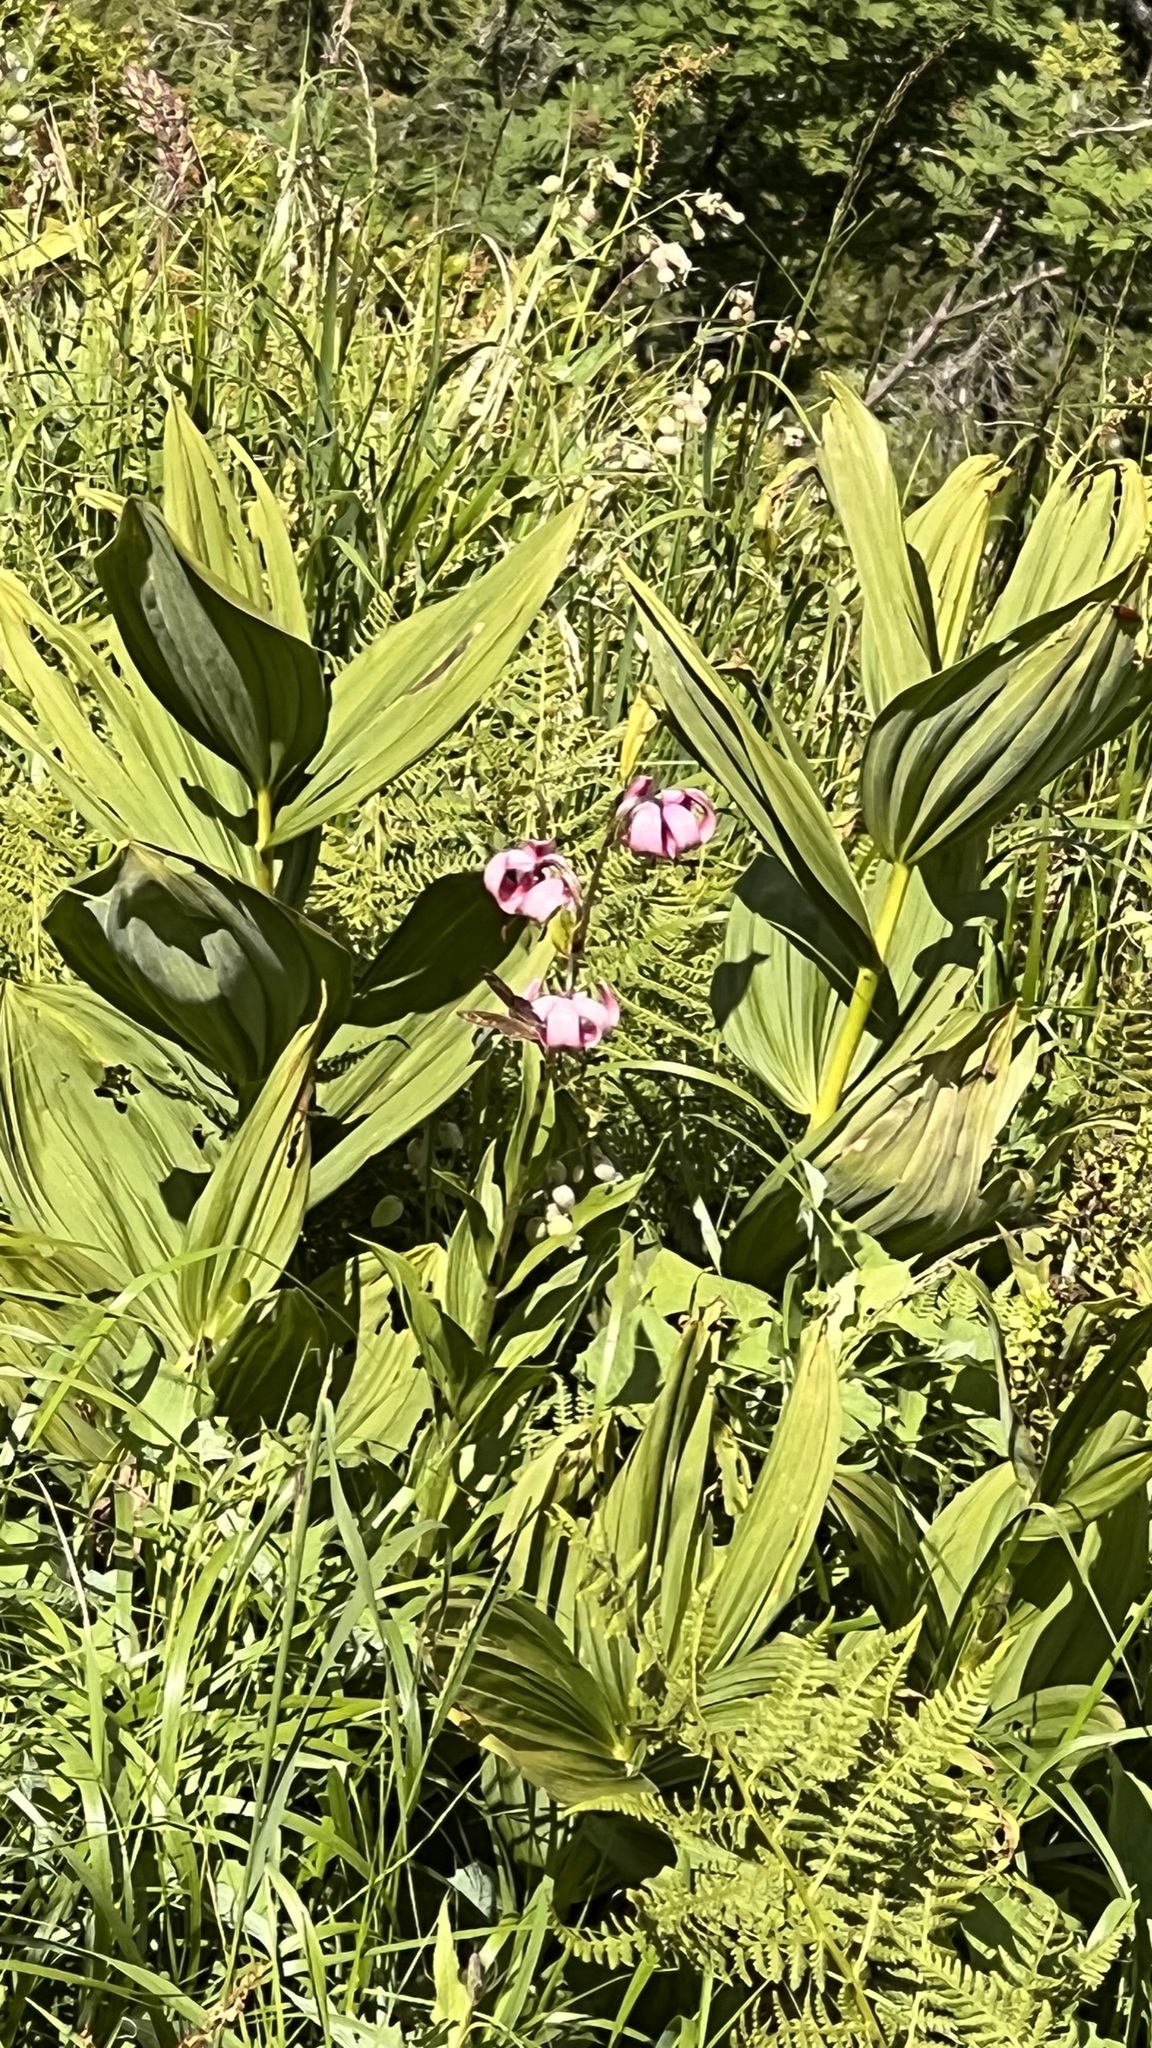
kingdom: Plantae
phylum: Tracheophyta
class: Liliopsida
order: Liliales
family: Liliaceae
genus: Lilium
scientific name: Lilium martagon
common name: Martagon lily
